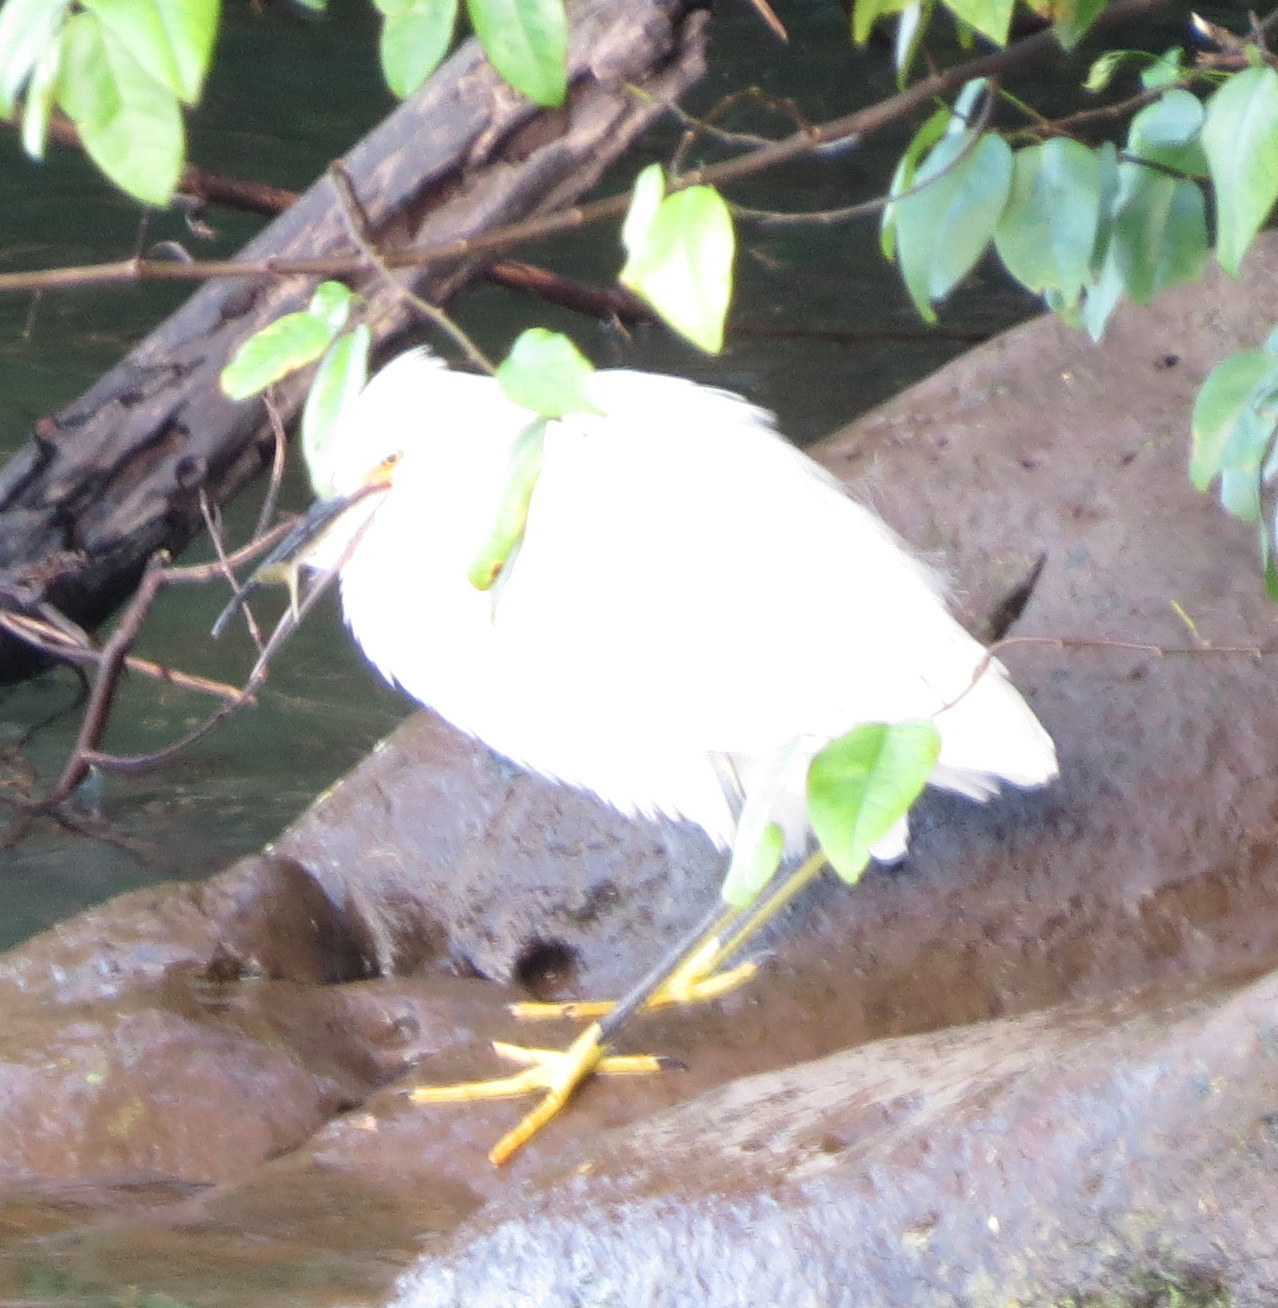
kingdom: Animalia
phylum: Chordata
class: Aves
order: Pelecaniformes
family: Ardeidae
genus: Egretta
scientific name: Egretta thula
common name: Snowy egret
